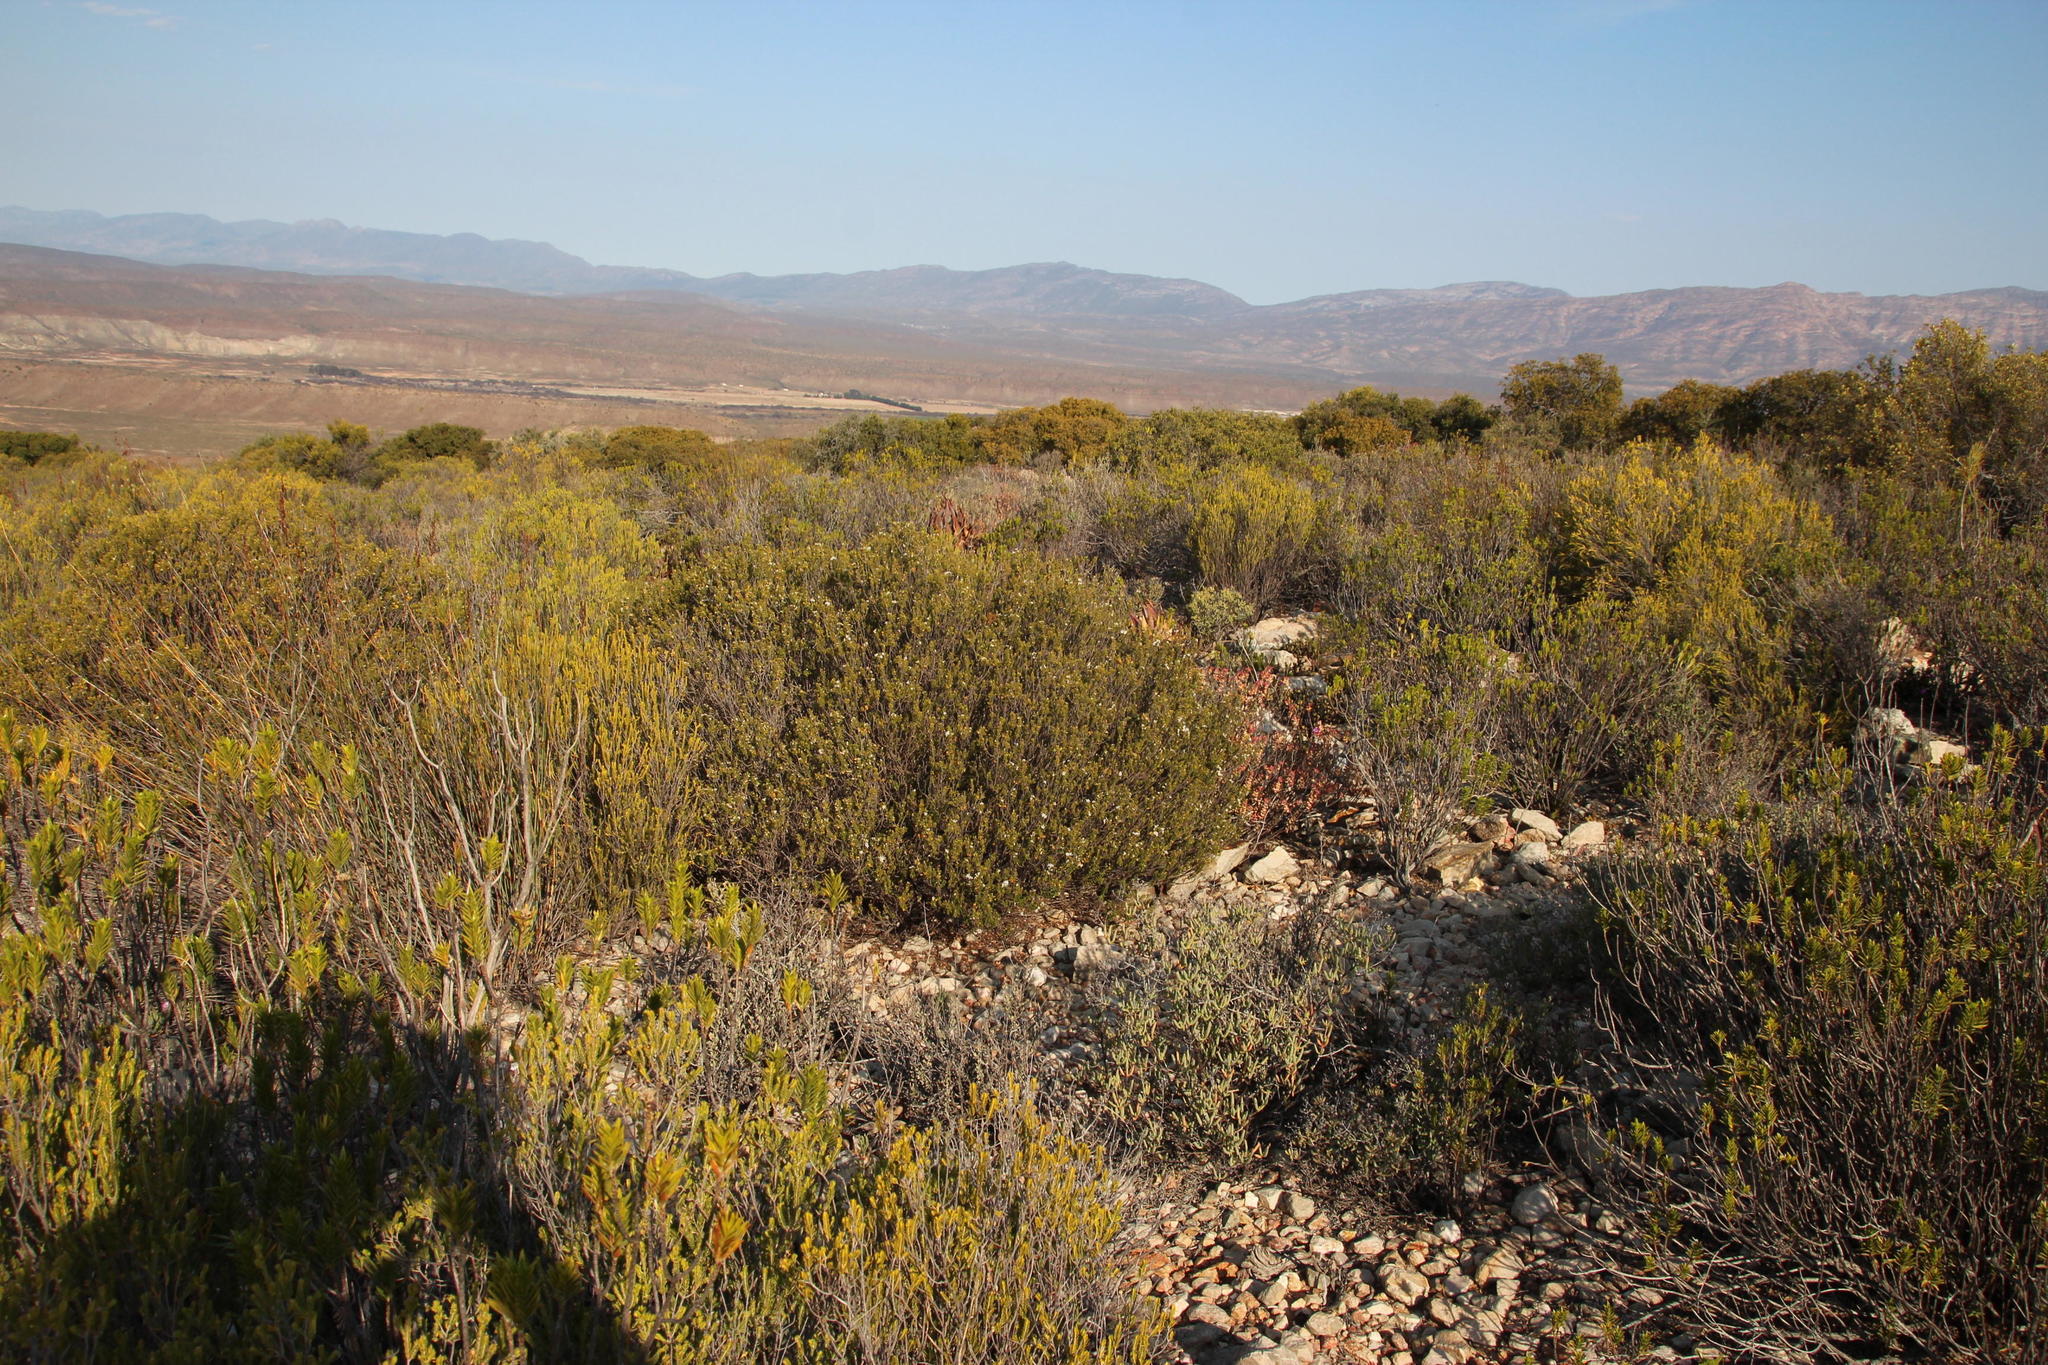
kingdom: Plantae
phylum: Tracheophyta
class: Magnoliopsida
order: Sapindales
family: Rutaceae
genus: Agathosma
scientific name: Agathosma ovata
